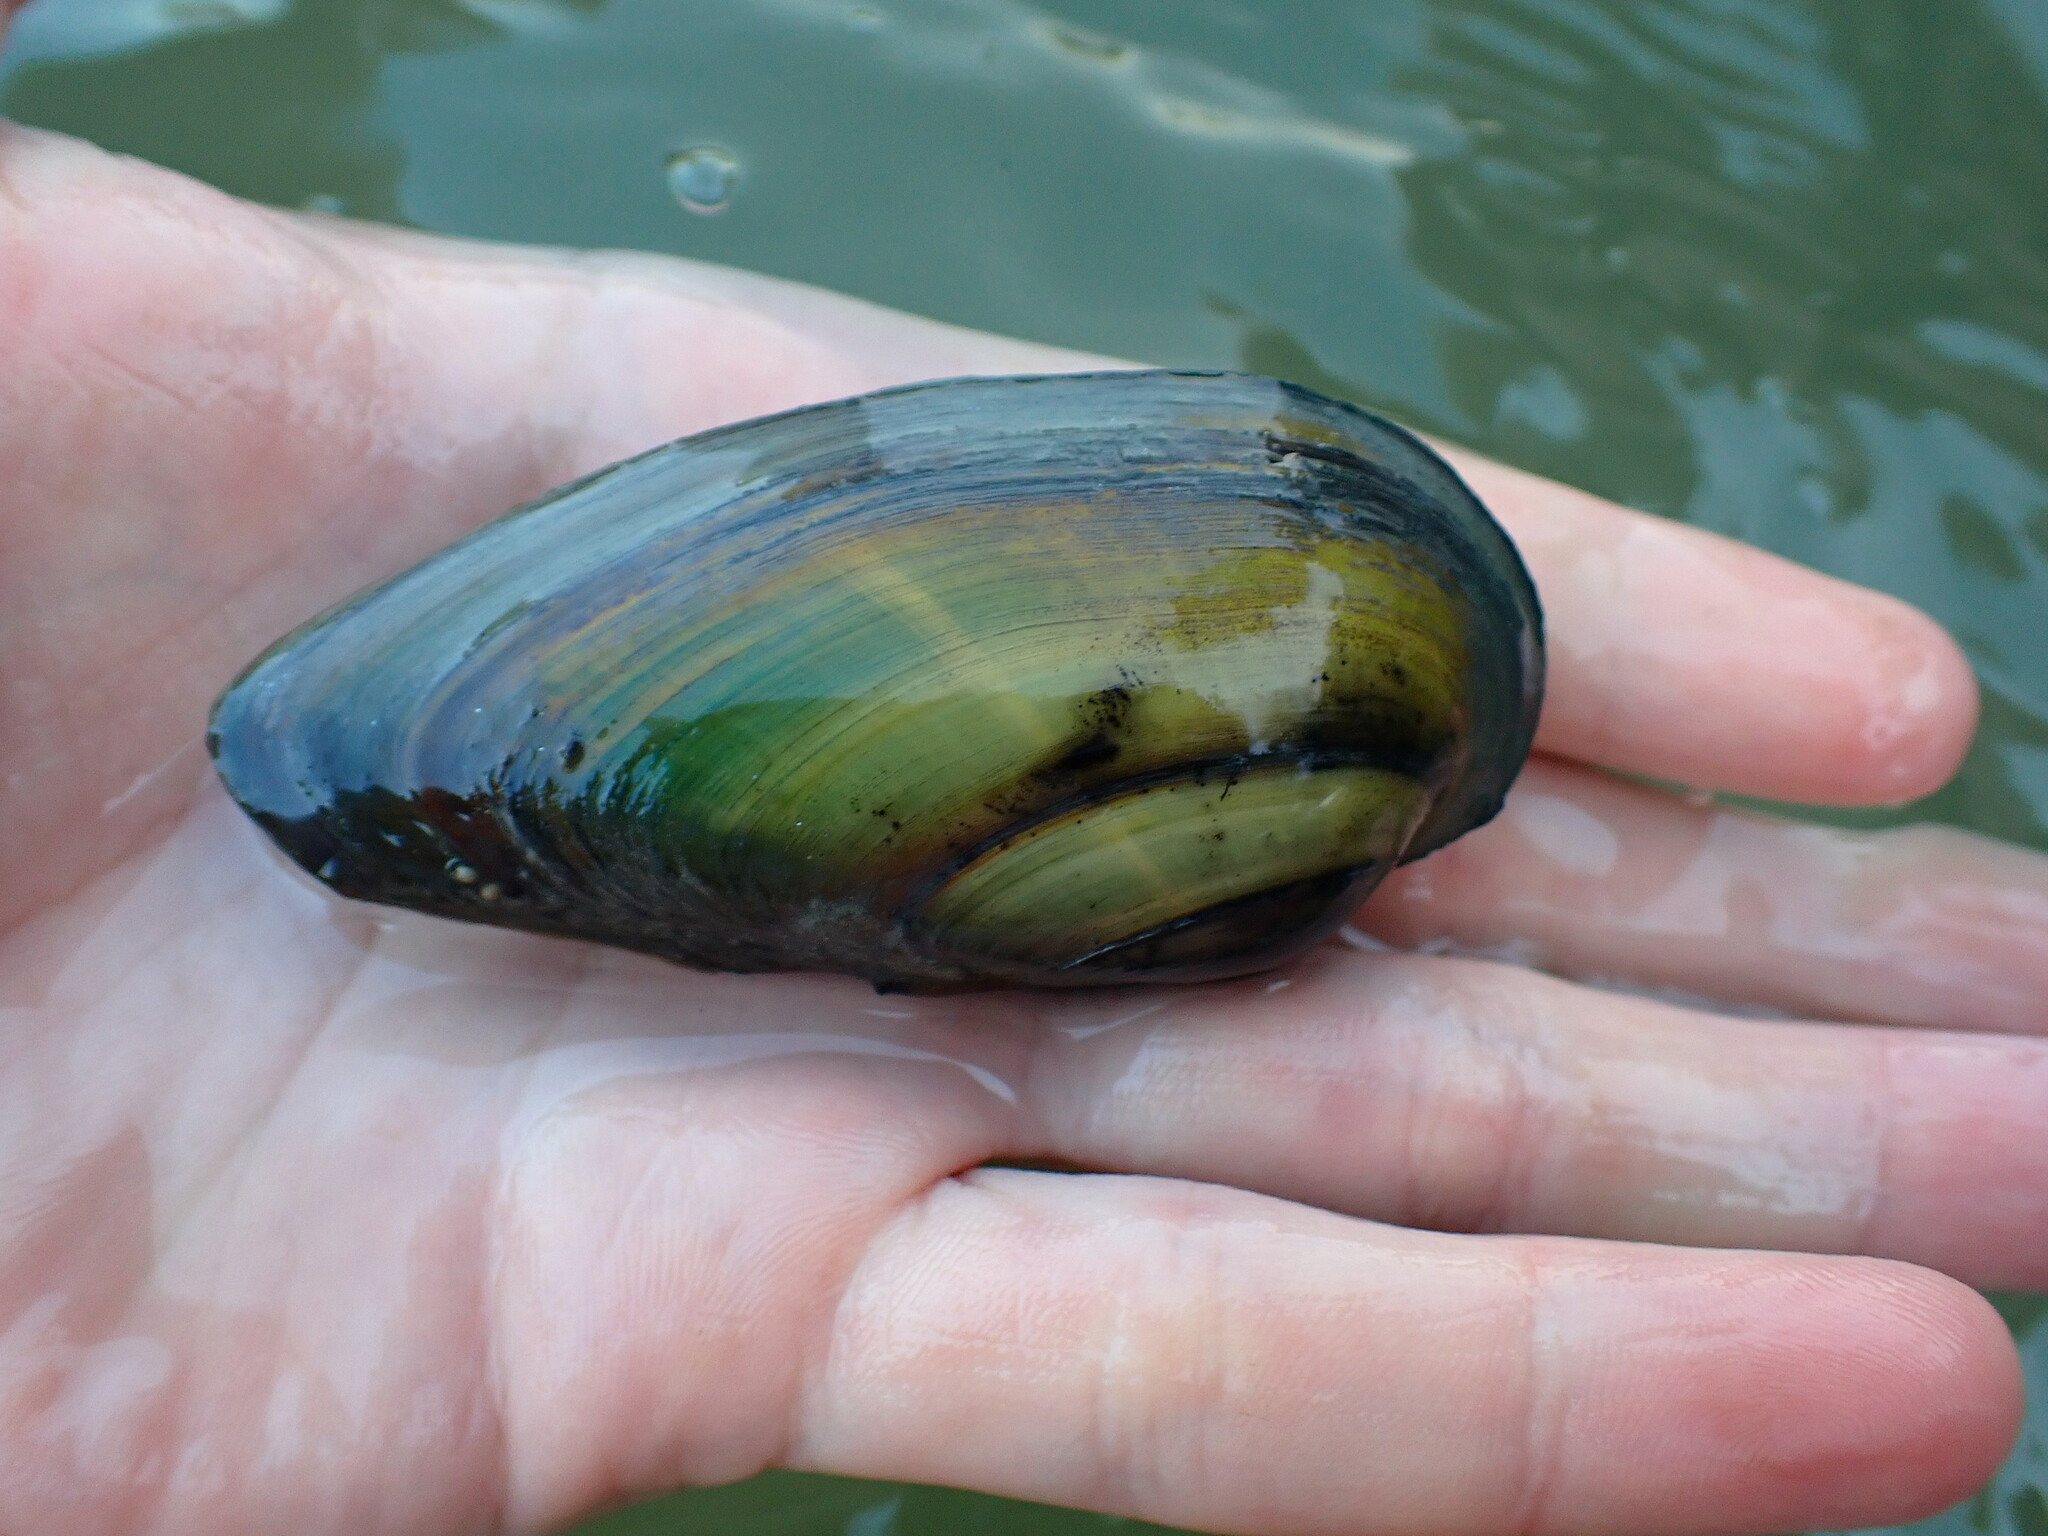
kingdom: Animalia
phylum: Mollusca
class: Bivalvia
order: Unionida
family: Unionidae
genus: Unio
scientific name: Unio tumidus
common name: Swollen river mussel
